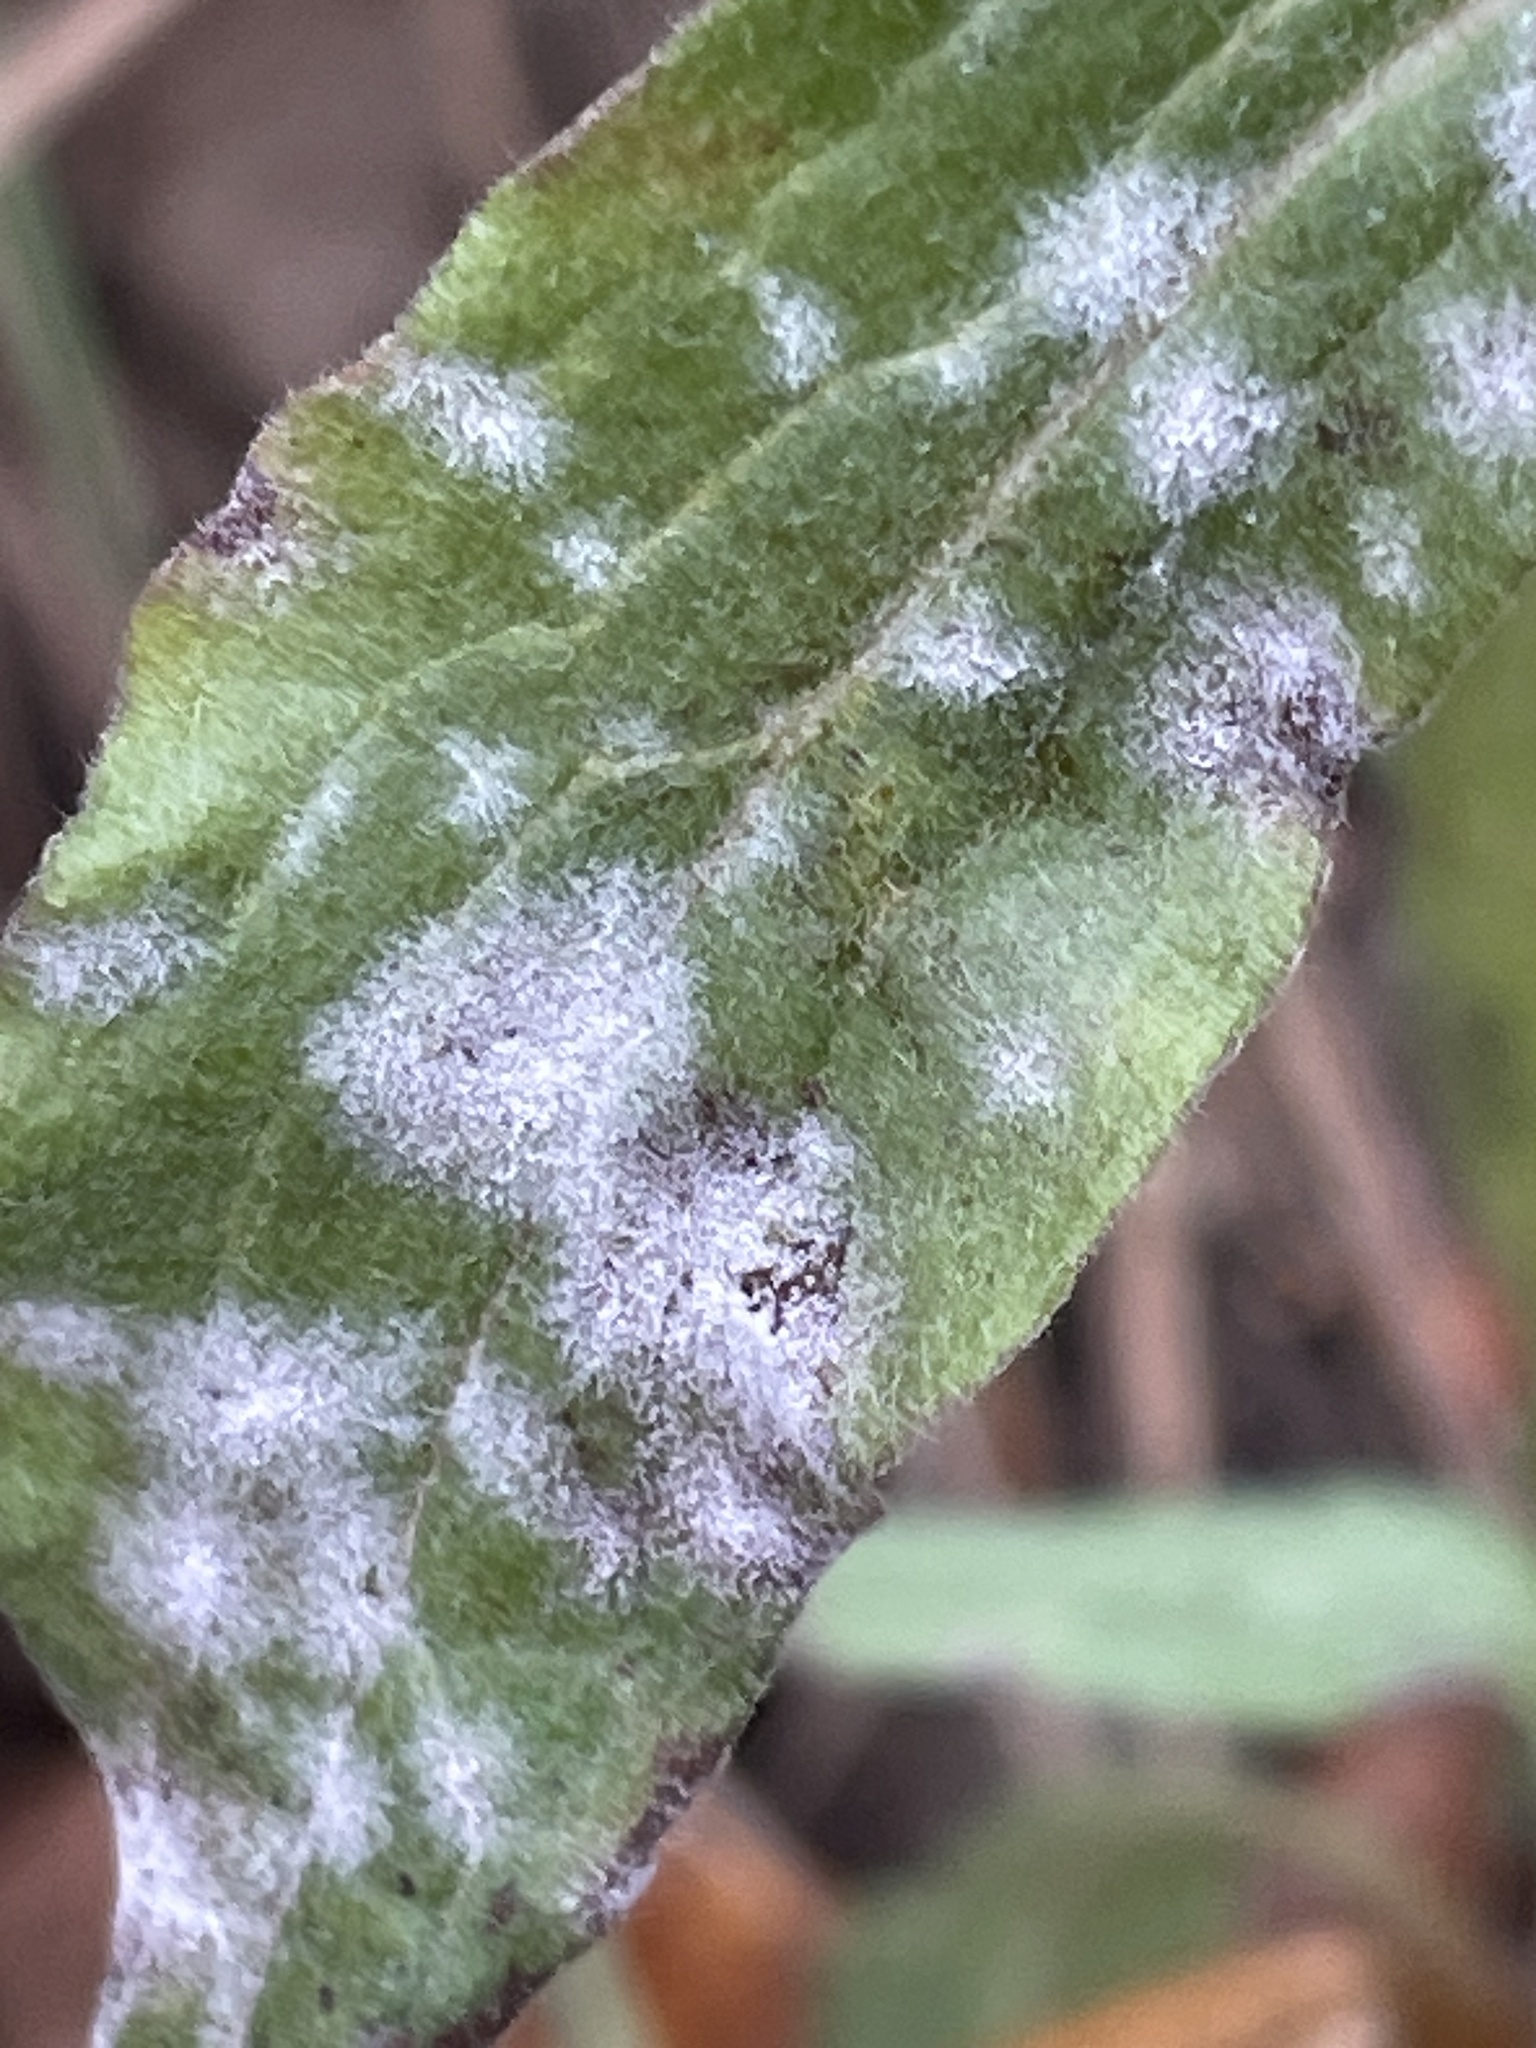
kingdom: Fungi
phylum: Ascomycota
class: Leotiomycetes
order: Helotiales
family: Erysiphaceae
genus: Golovinomyces
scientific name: Golovinomyces cynoglossi
